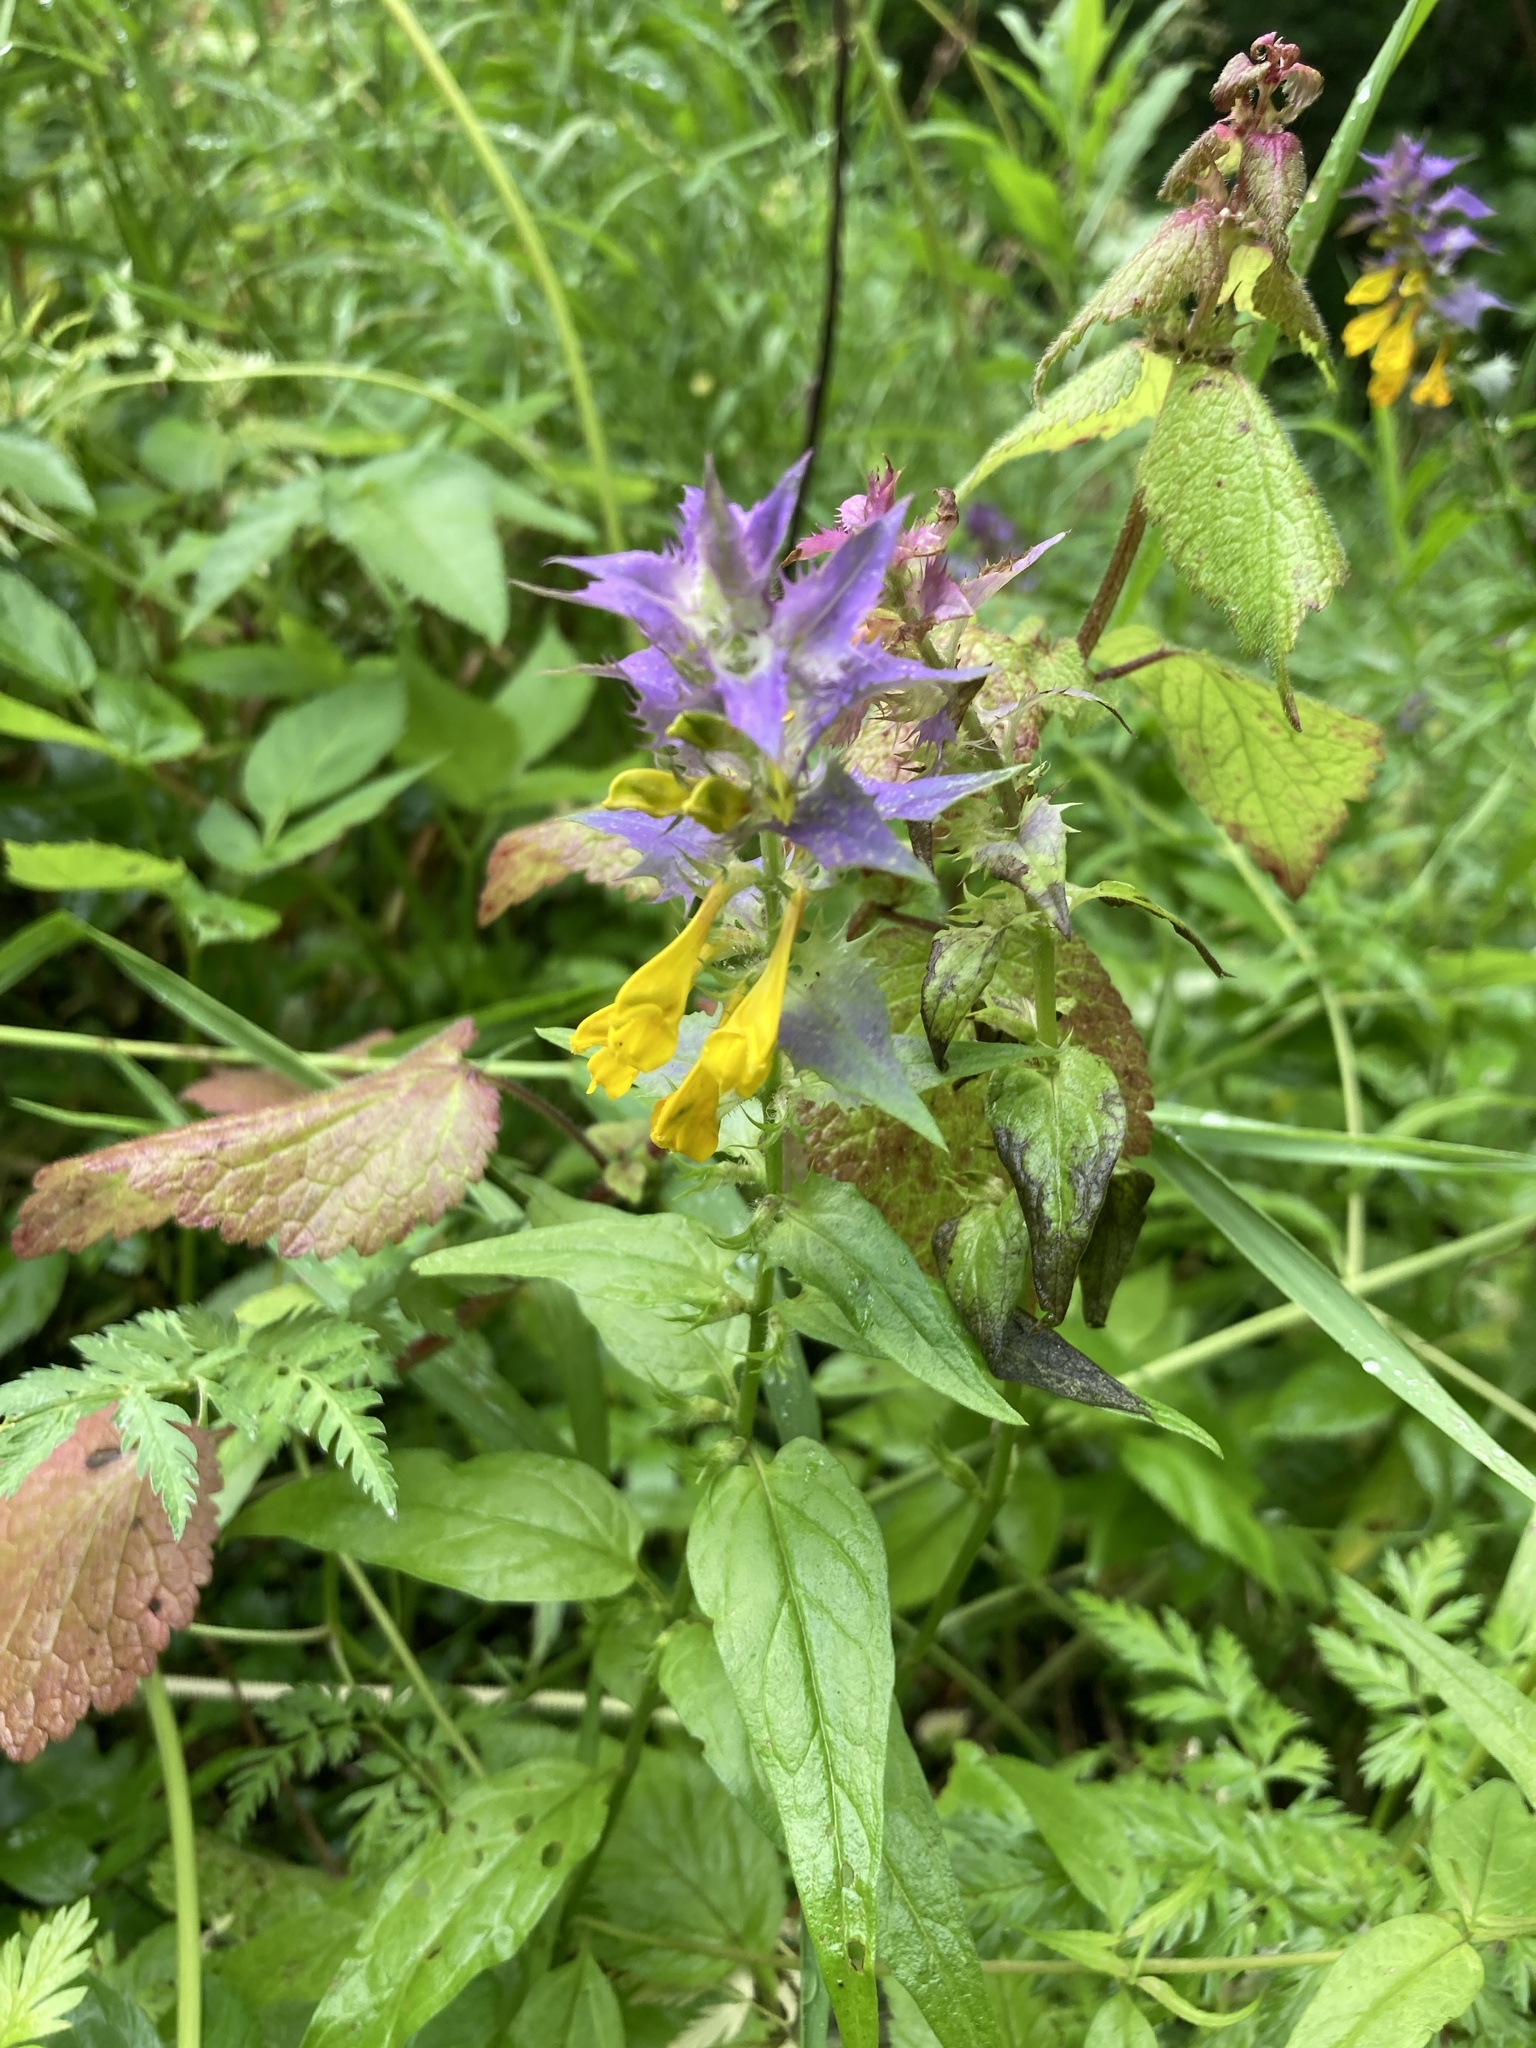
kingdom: Plantae
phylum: Tracheophyta
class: Magnoliopsida
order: Lamiales
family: Orobanchaceae
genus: Melampyrum
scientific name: Melampyrum nemorosum
